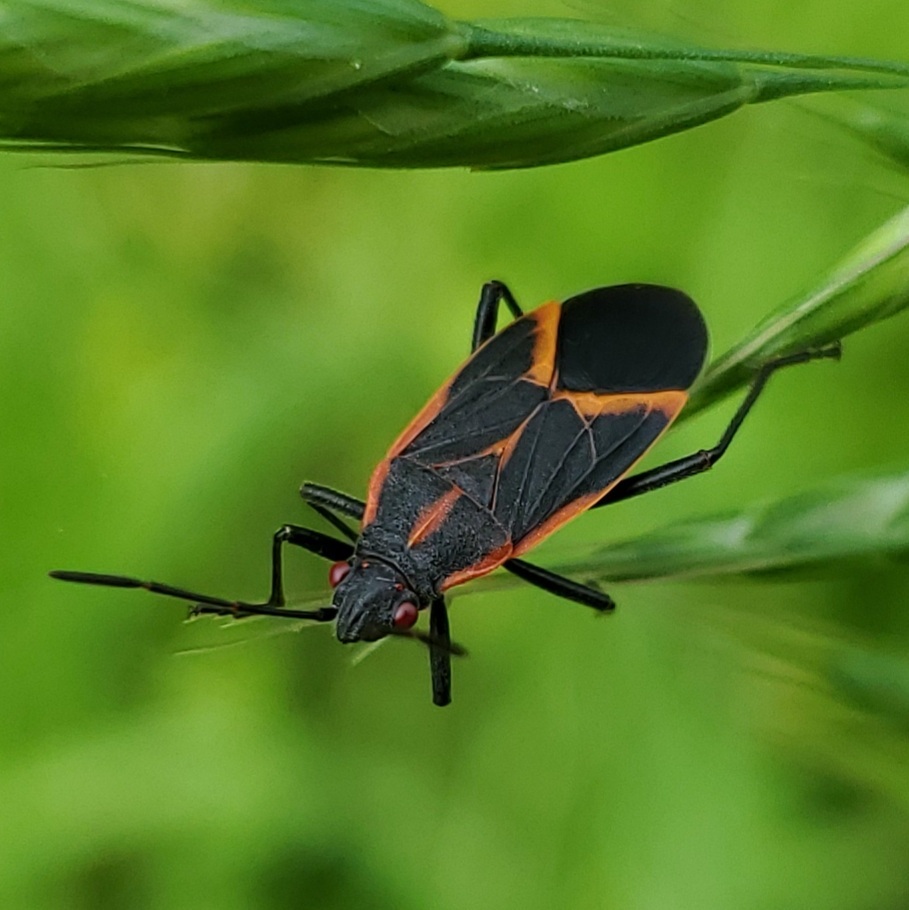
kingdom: Animalia
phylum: Arthropoda
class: Insecta
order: Hemiptera
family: Rhopalidae
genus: Boisea
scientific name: Boisea trivittata
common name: Boxelder bug
